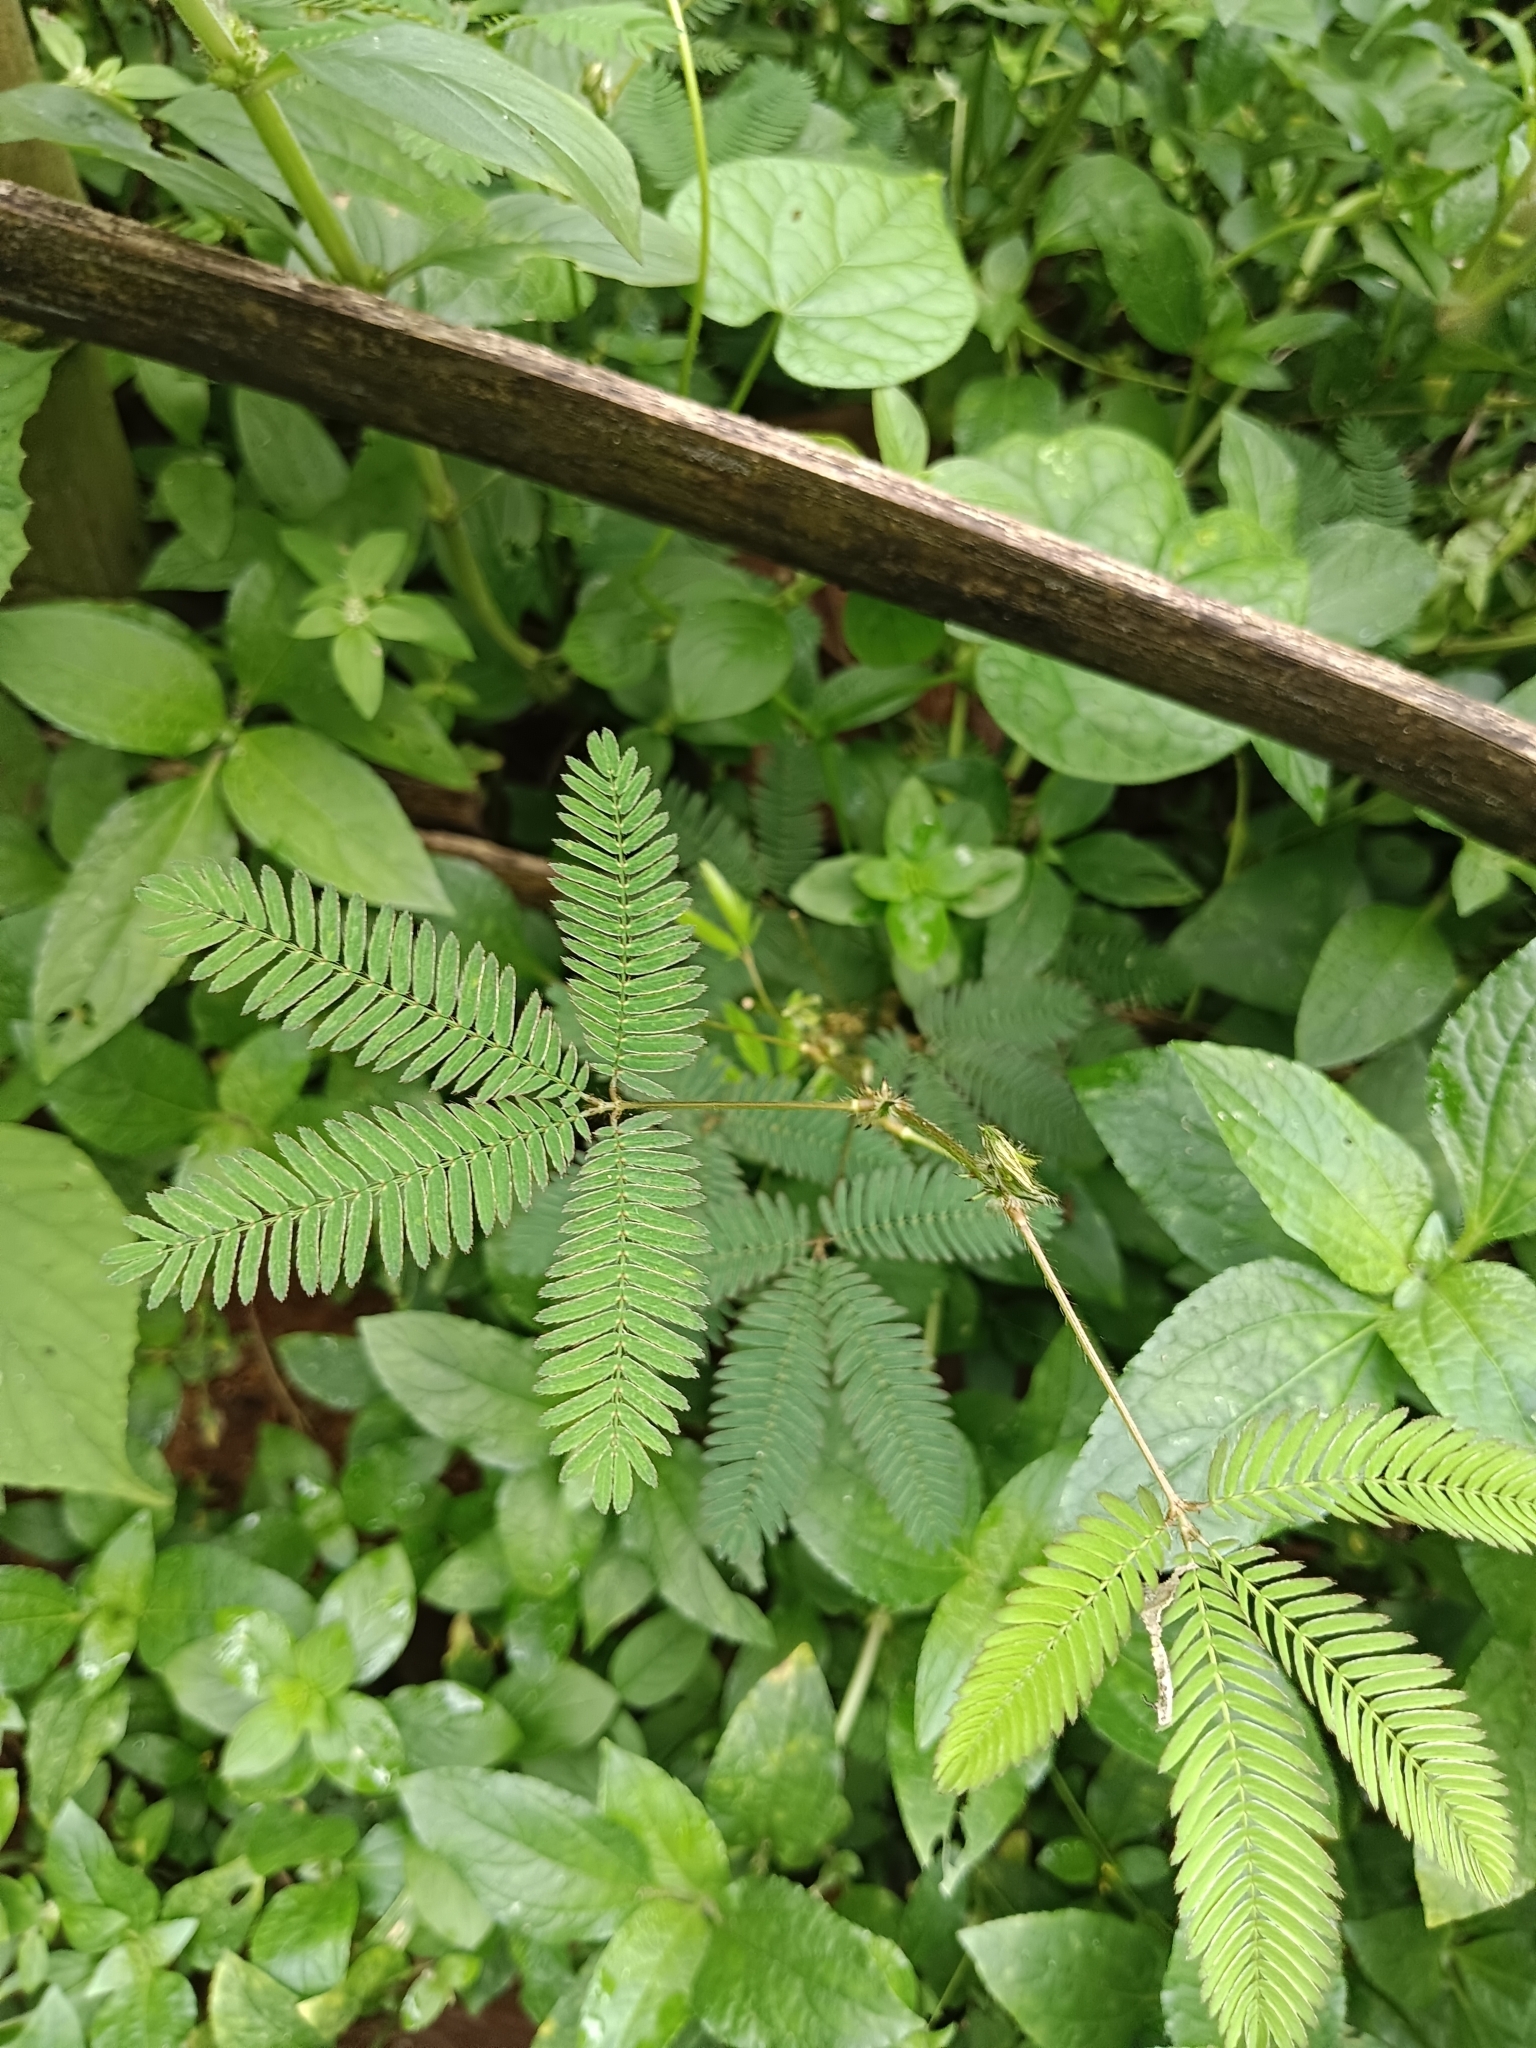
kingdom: Plantae
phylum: Tracheophyta
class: Magnoliopsida
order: Fabales
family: Fabaceae
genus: Mimosa
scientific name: Mimosa pudica
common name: Sensitive plant
